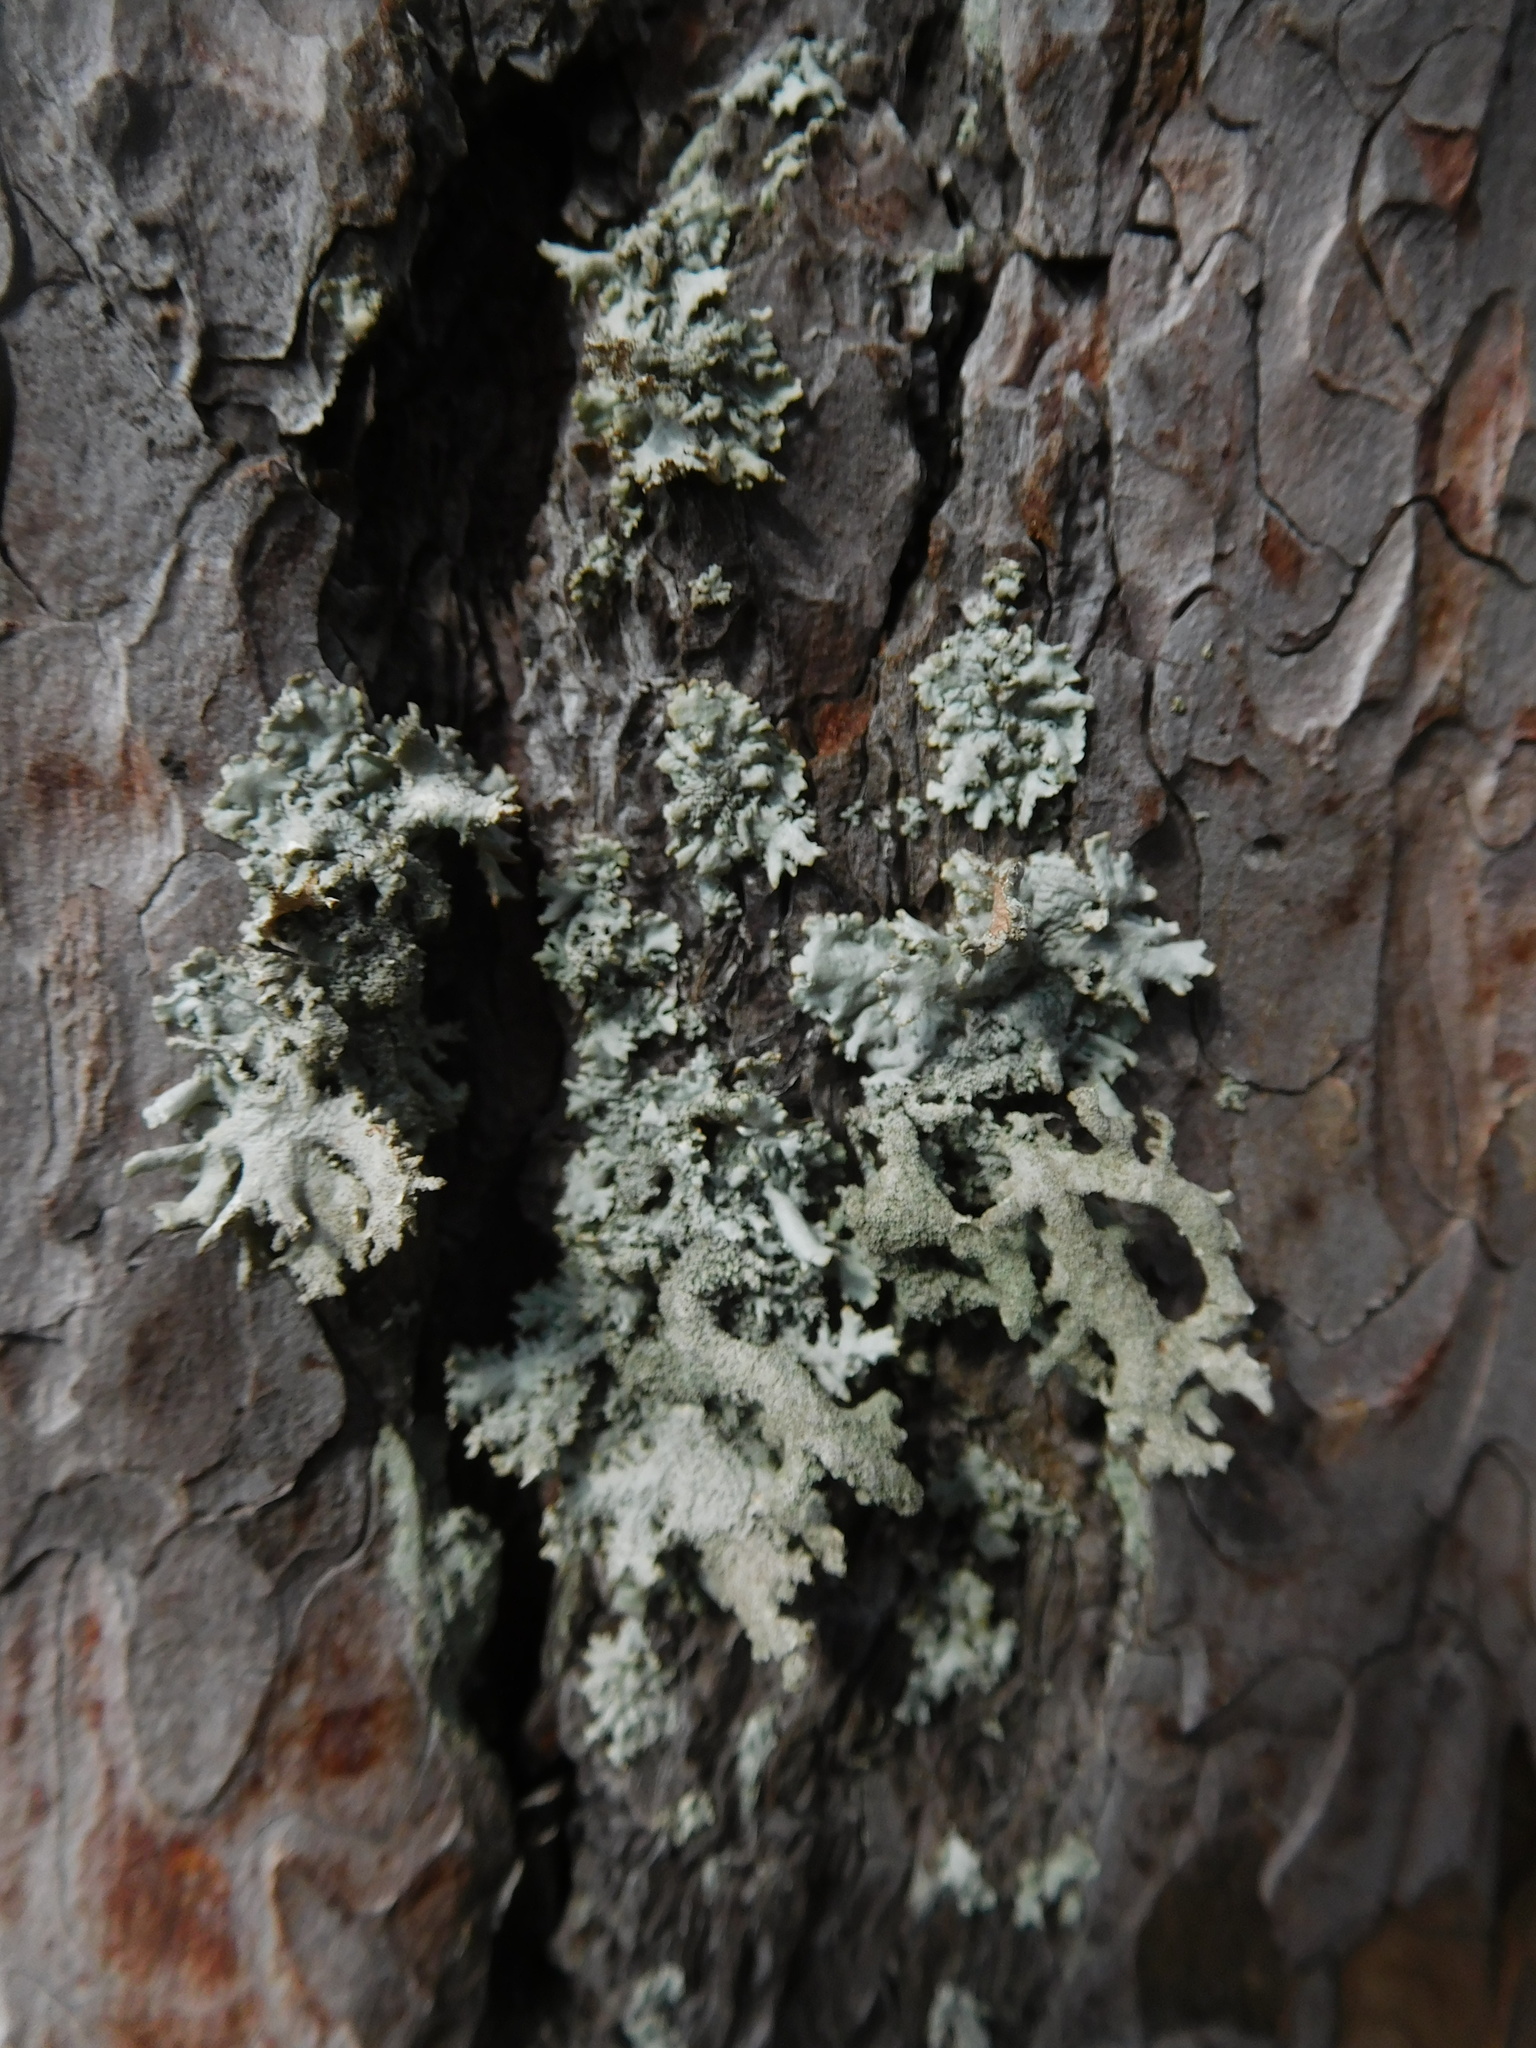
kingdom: Fungi
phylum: Ascomycota
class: Lecanoromycetes
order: Lecanorales
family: Parmeliaceae
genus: Hypogymnia
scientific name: Hypogymnia physodes
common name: Dark crottle
